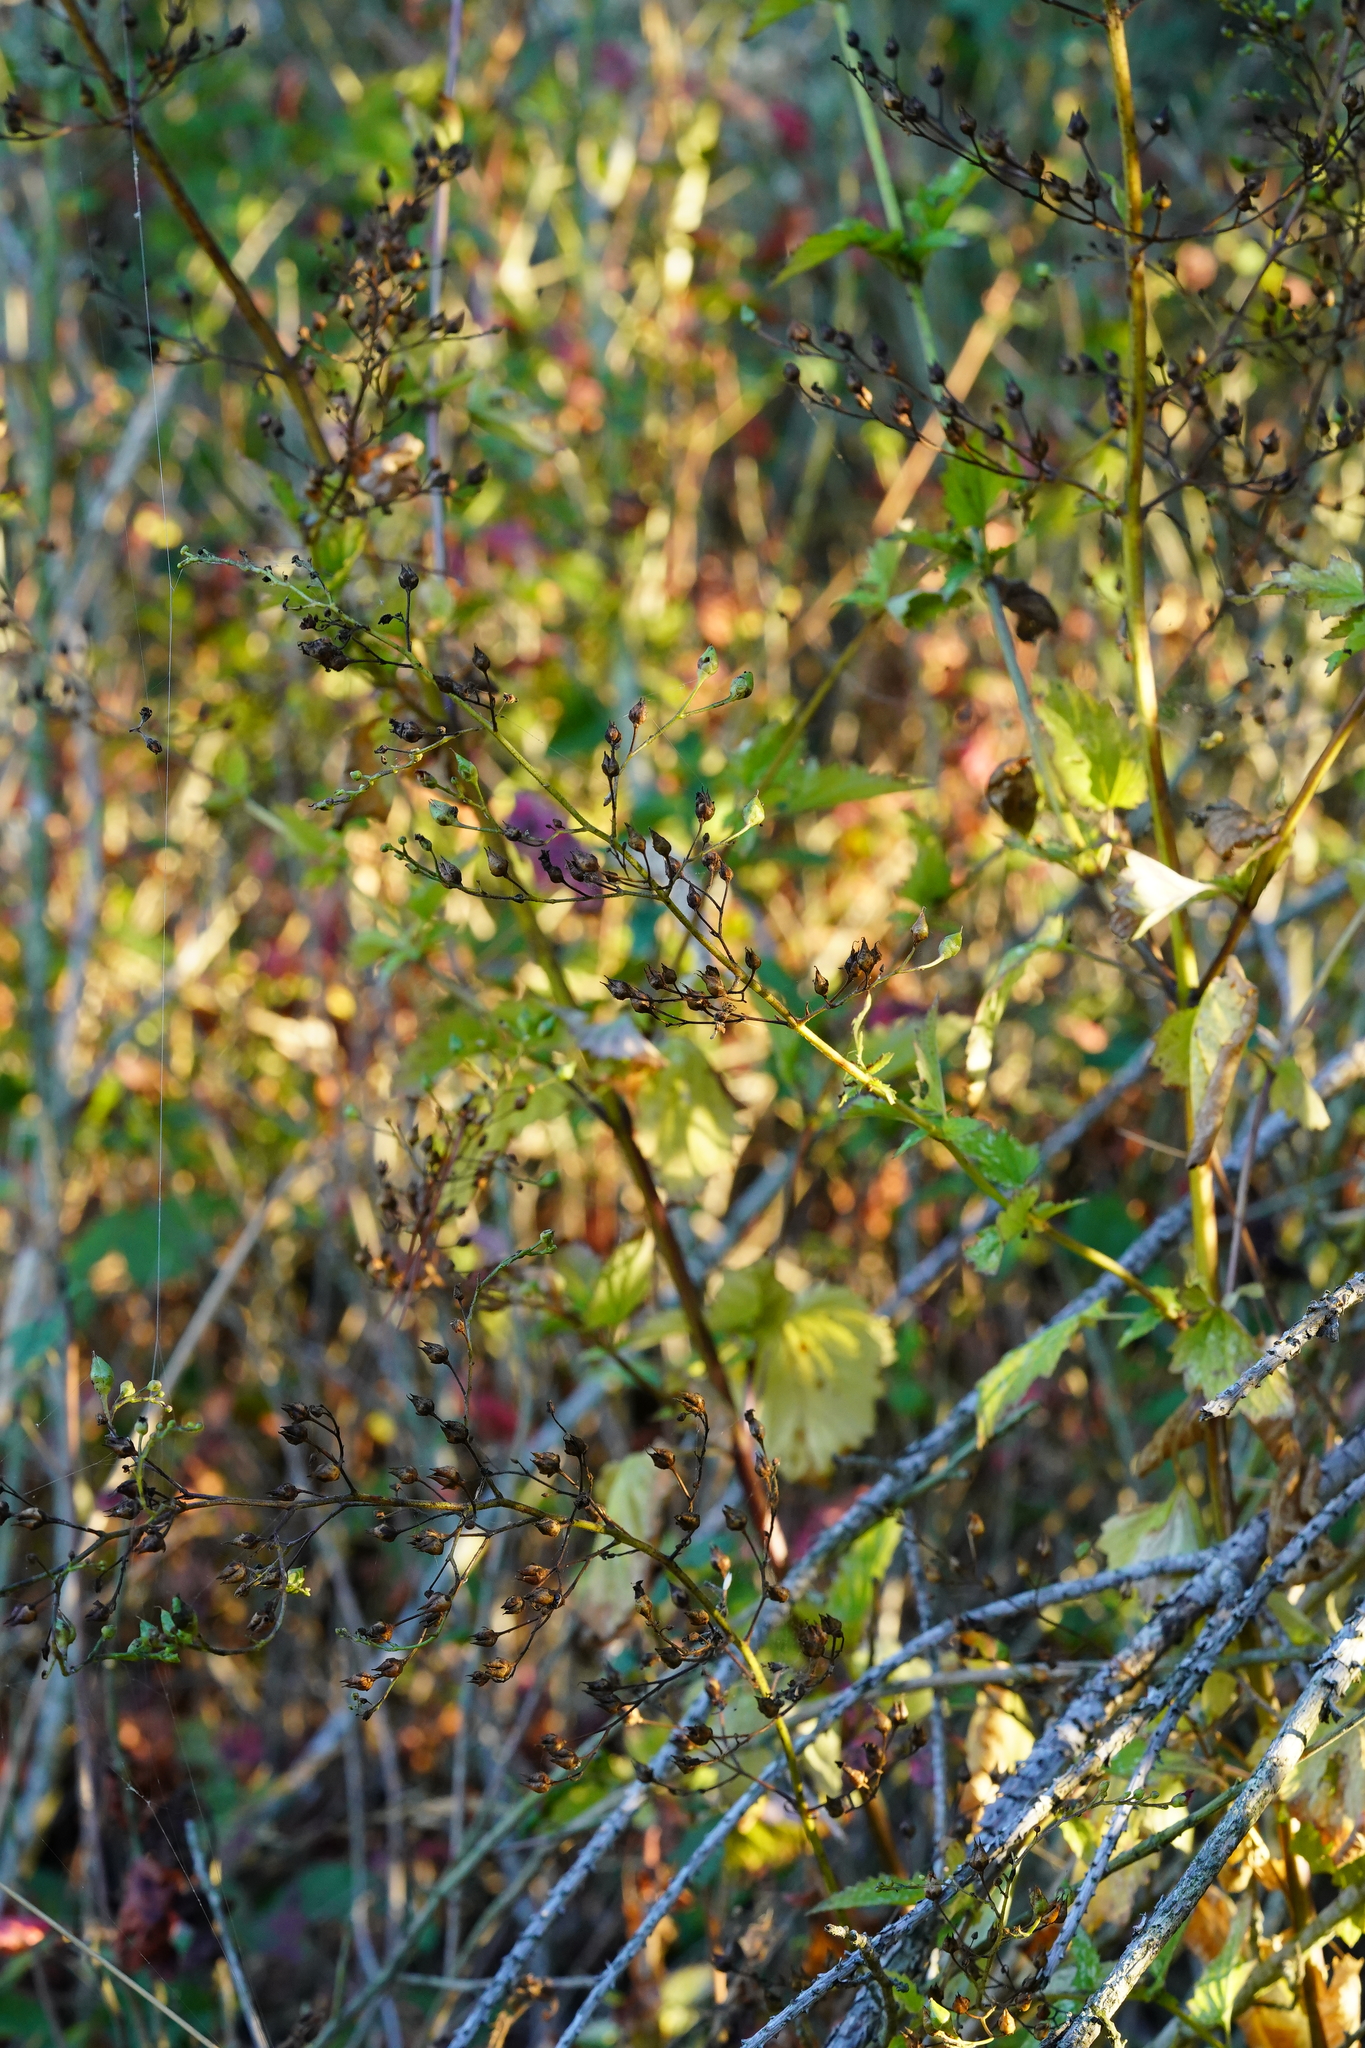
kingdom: Plantae
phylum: Tracheophyta
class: Magnoliopsida
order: Lamiales
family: Scrophulariaceae
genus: Scrophularia
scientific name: Scrophularia californica
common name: California figwort
